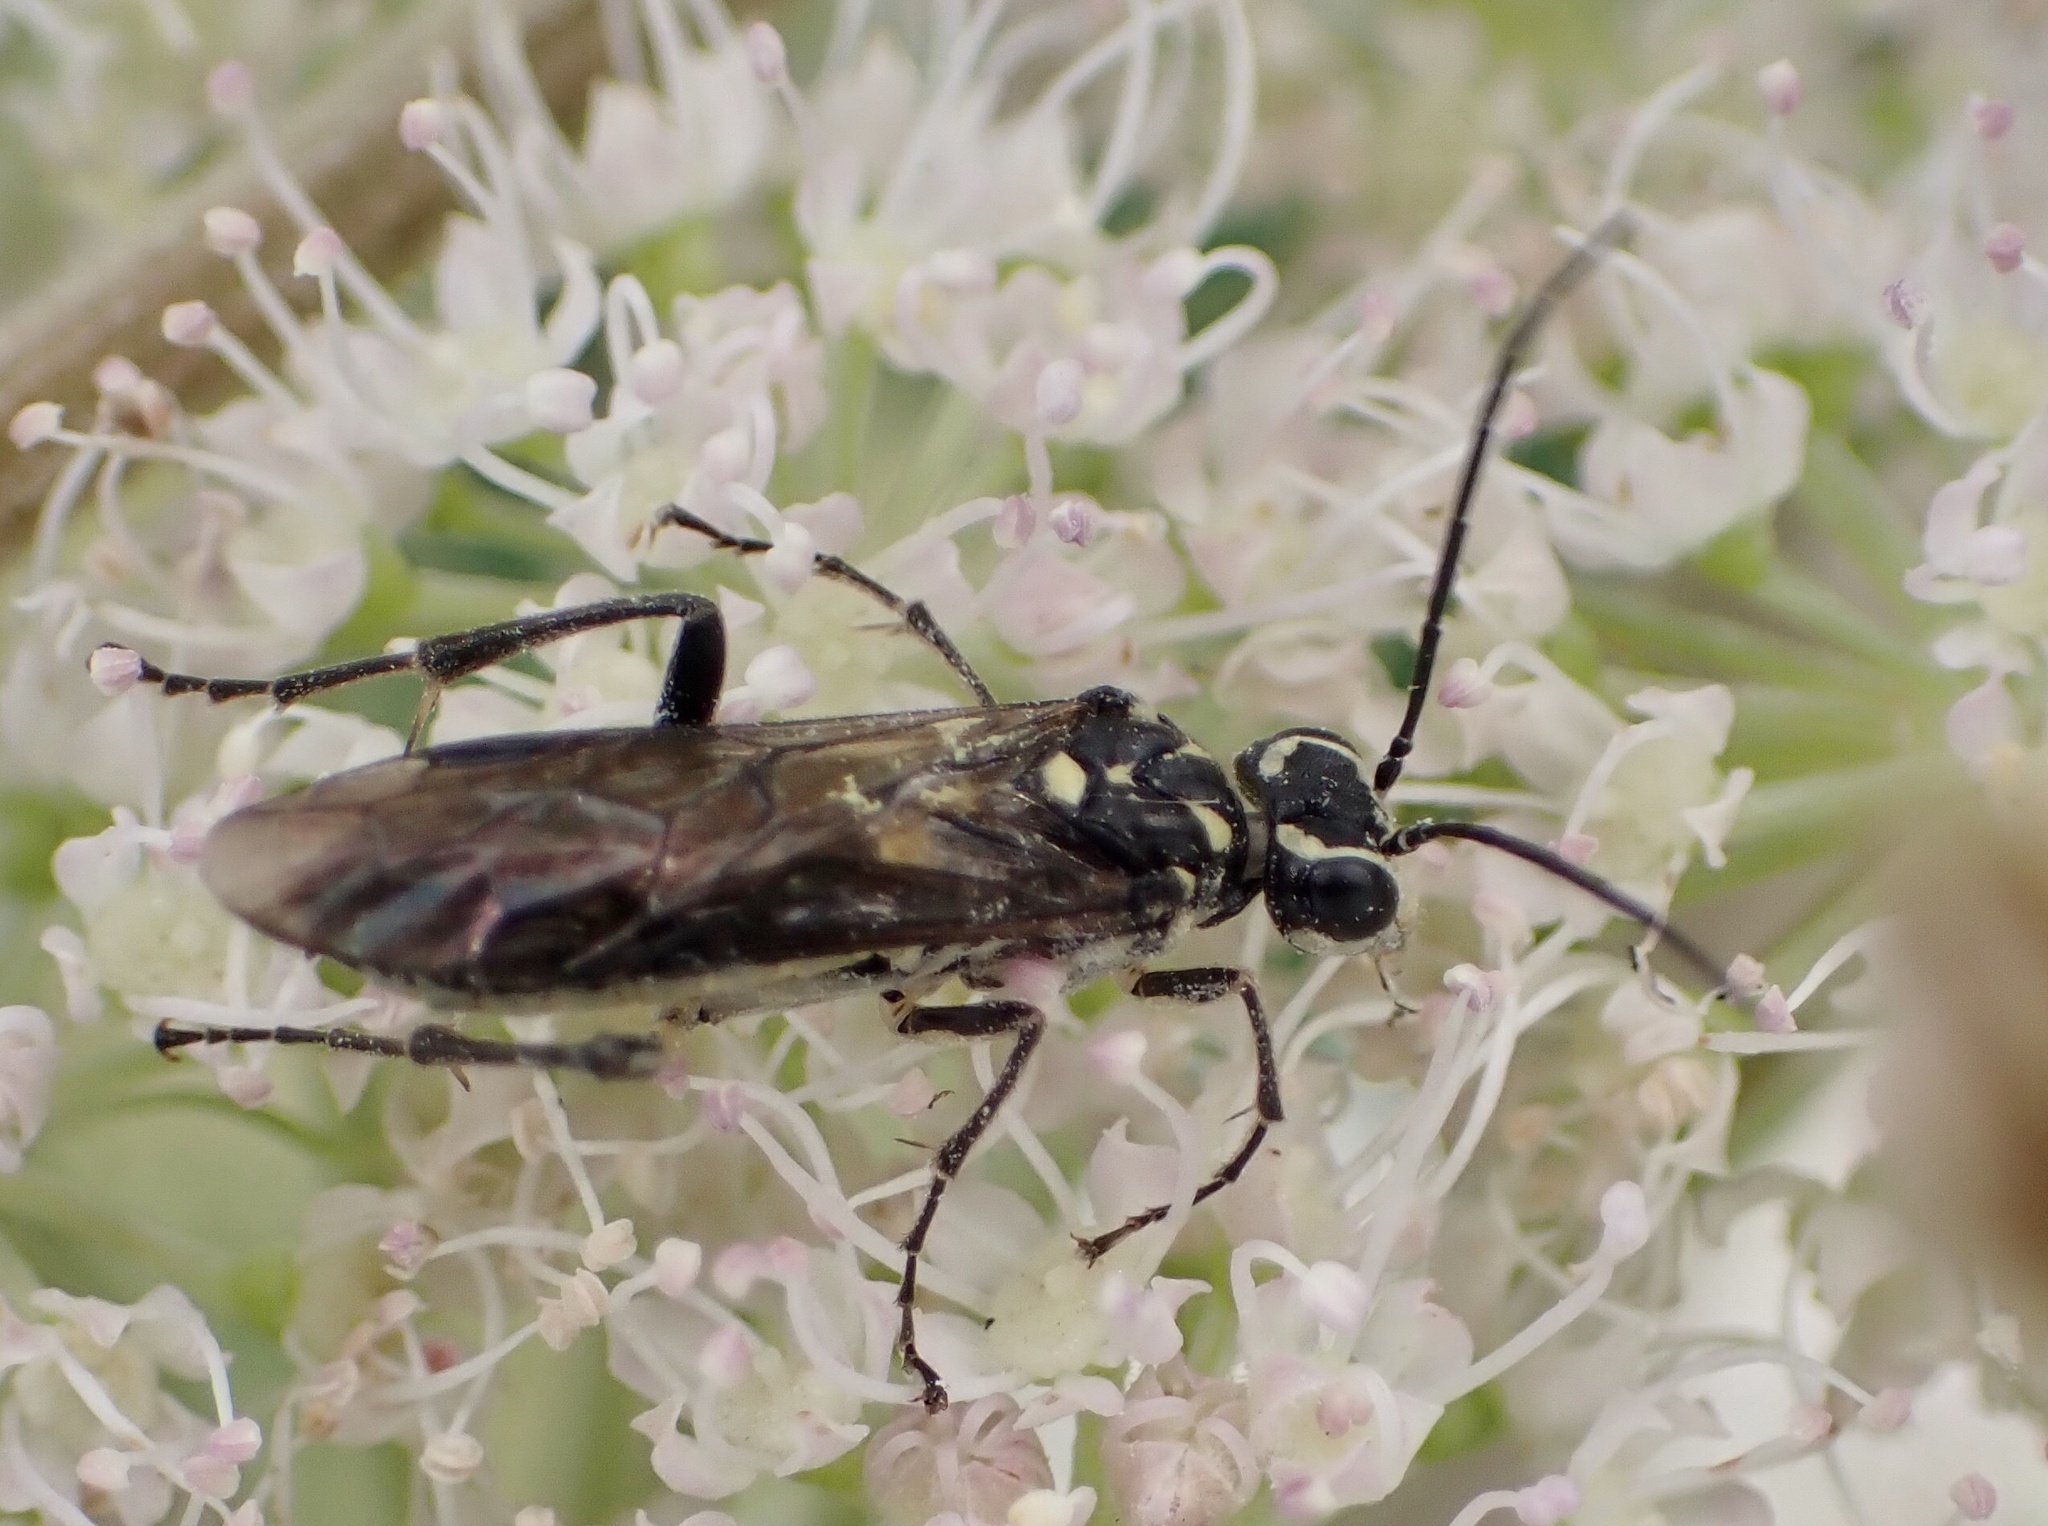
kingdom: Animalia
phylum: Arthropoda
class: Insecta
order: Hymenoptera
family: Tenthredinidae
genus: Pachyprotasis
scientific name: Pachyprotasis rapae
